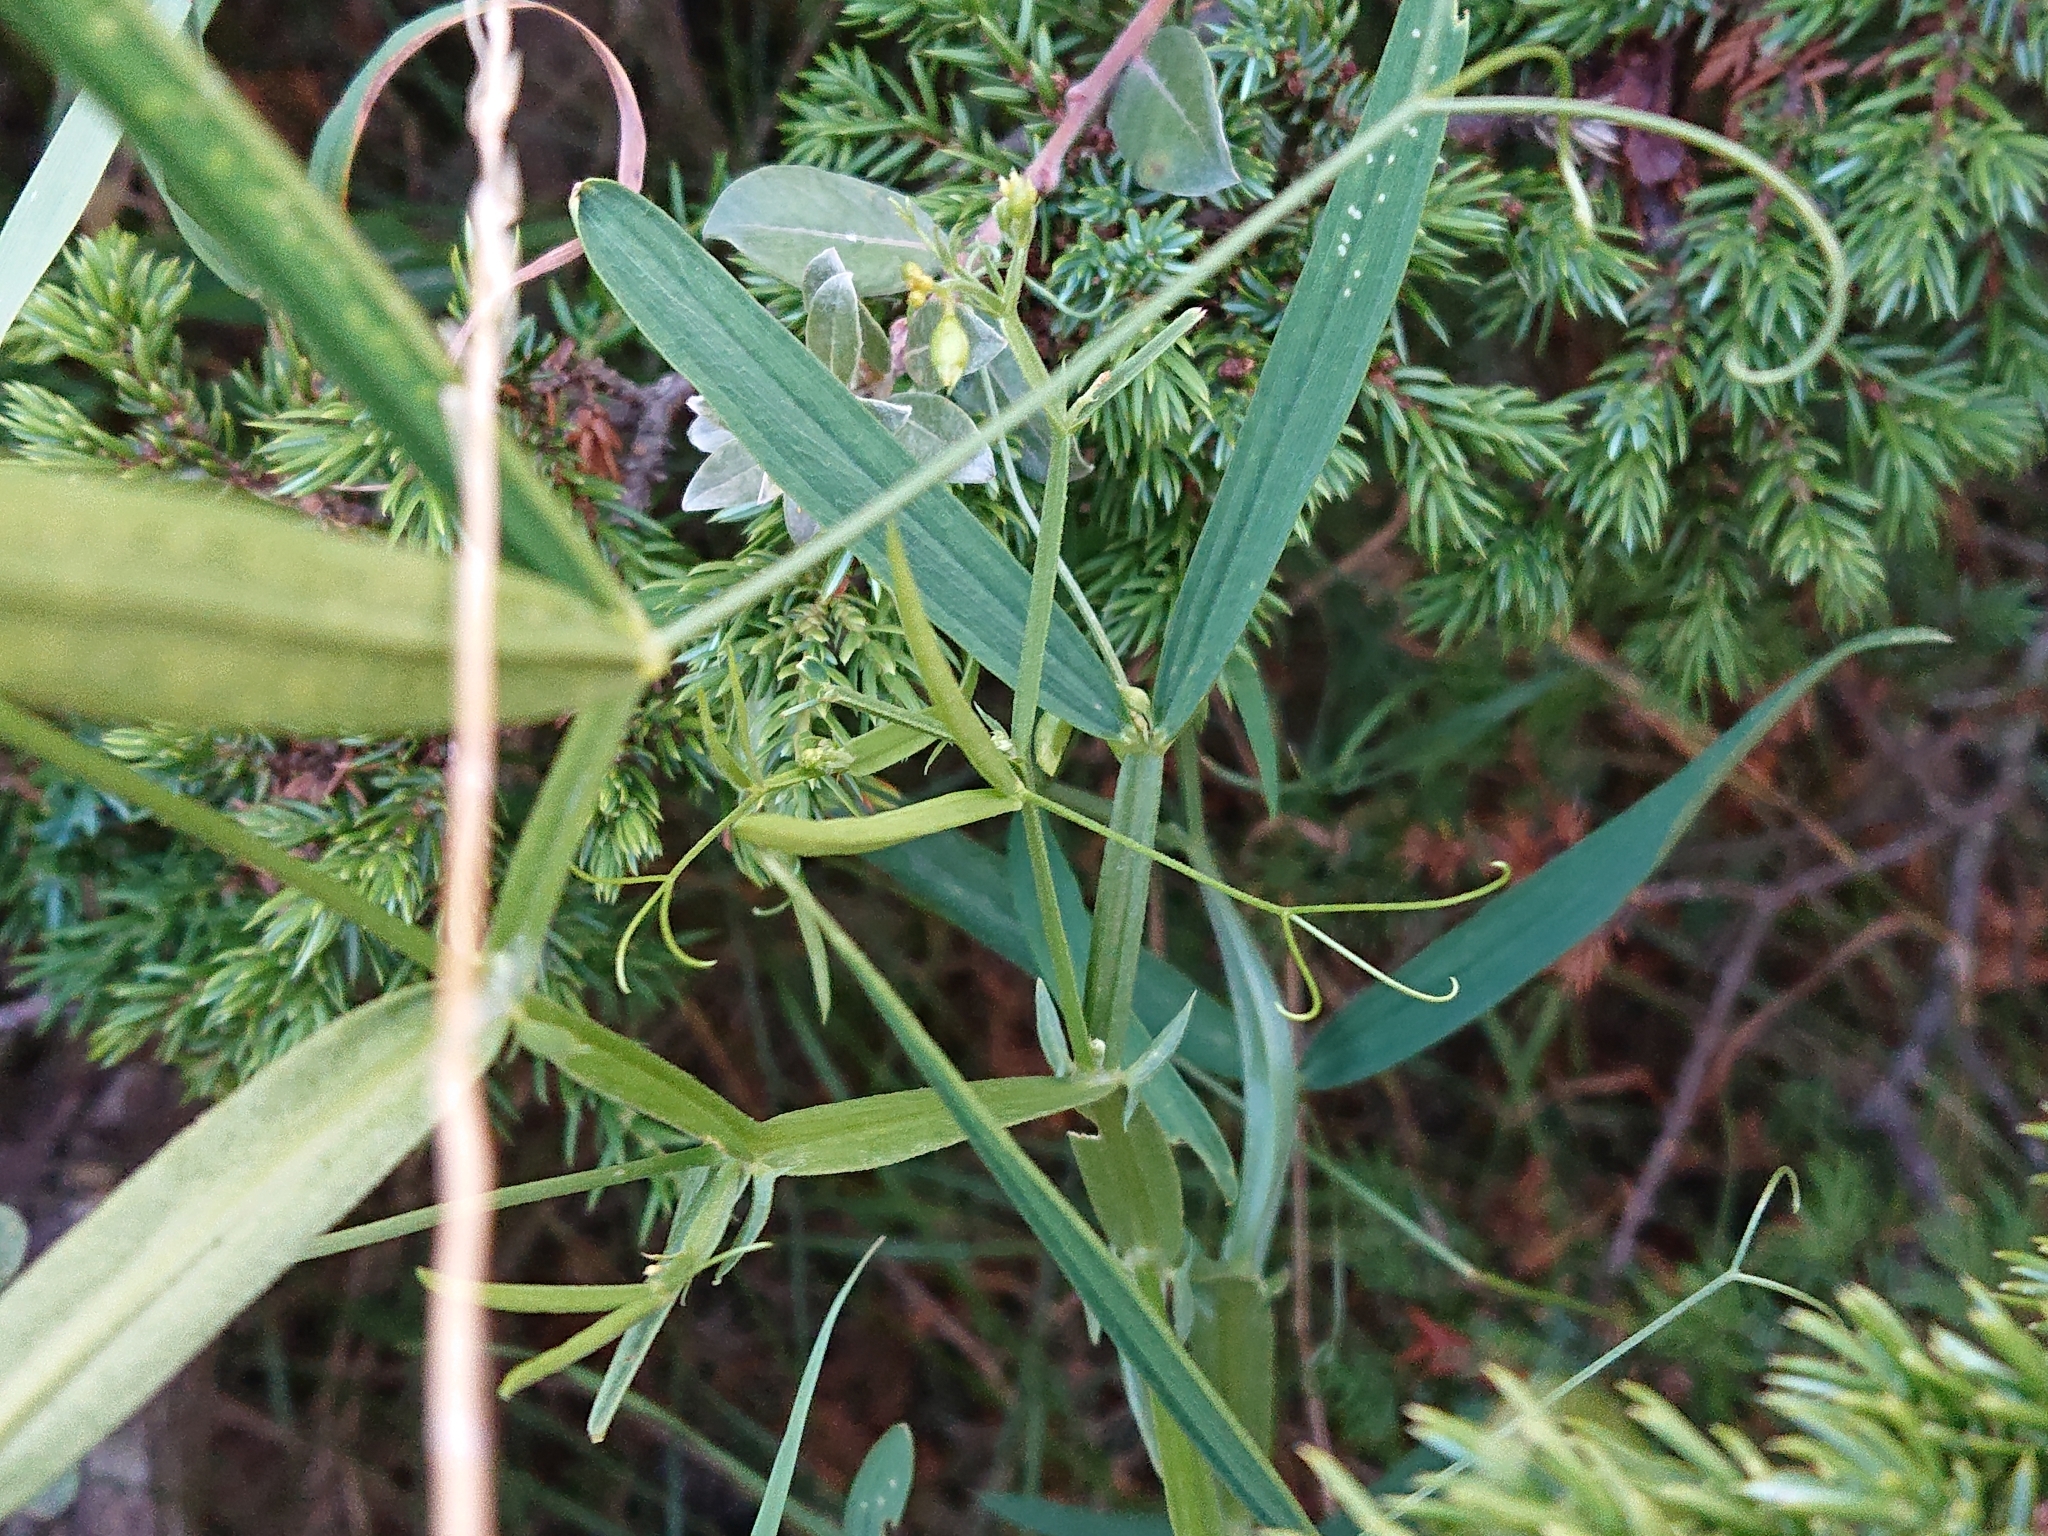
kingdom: Plantae
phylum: Tracheophyta
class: Magnoliopsida
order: Fabales
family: Fabaceae
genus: Lathyrus
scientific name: Lathyrus sylvestris
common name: Flat pea
